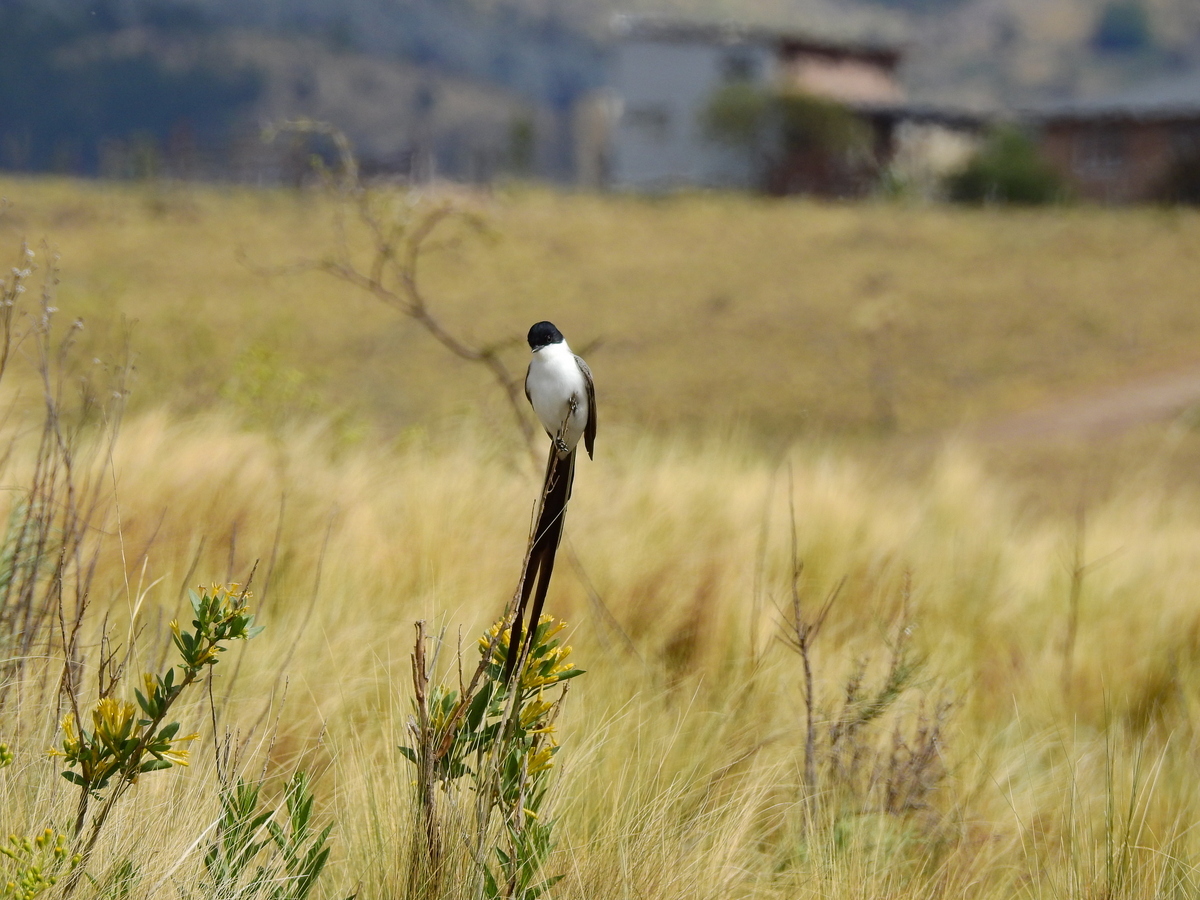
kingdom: Animalia
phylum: Chordata
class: Aves
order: Passeriformes
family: Tyrannidae
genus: Tyrannus
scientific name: Tyrannus savana
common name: Fork-tailed flycatcher
